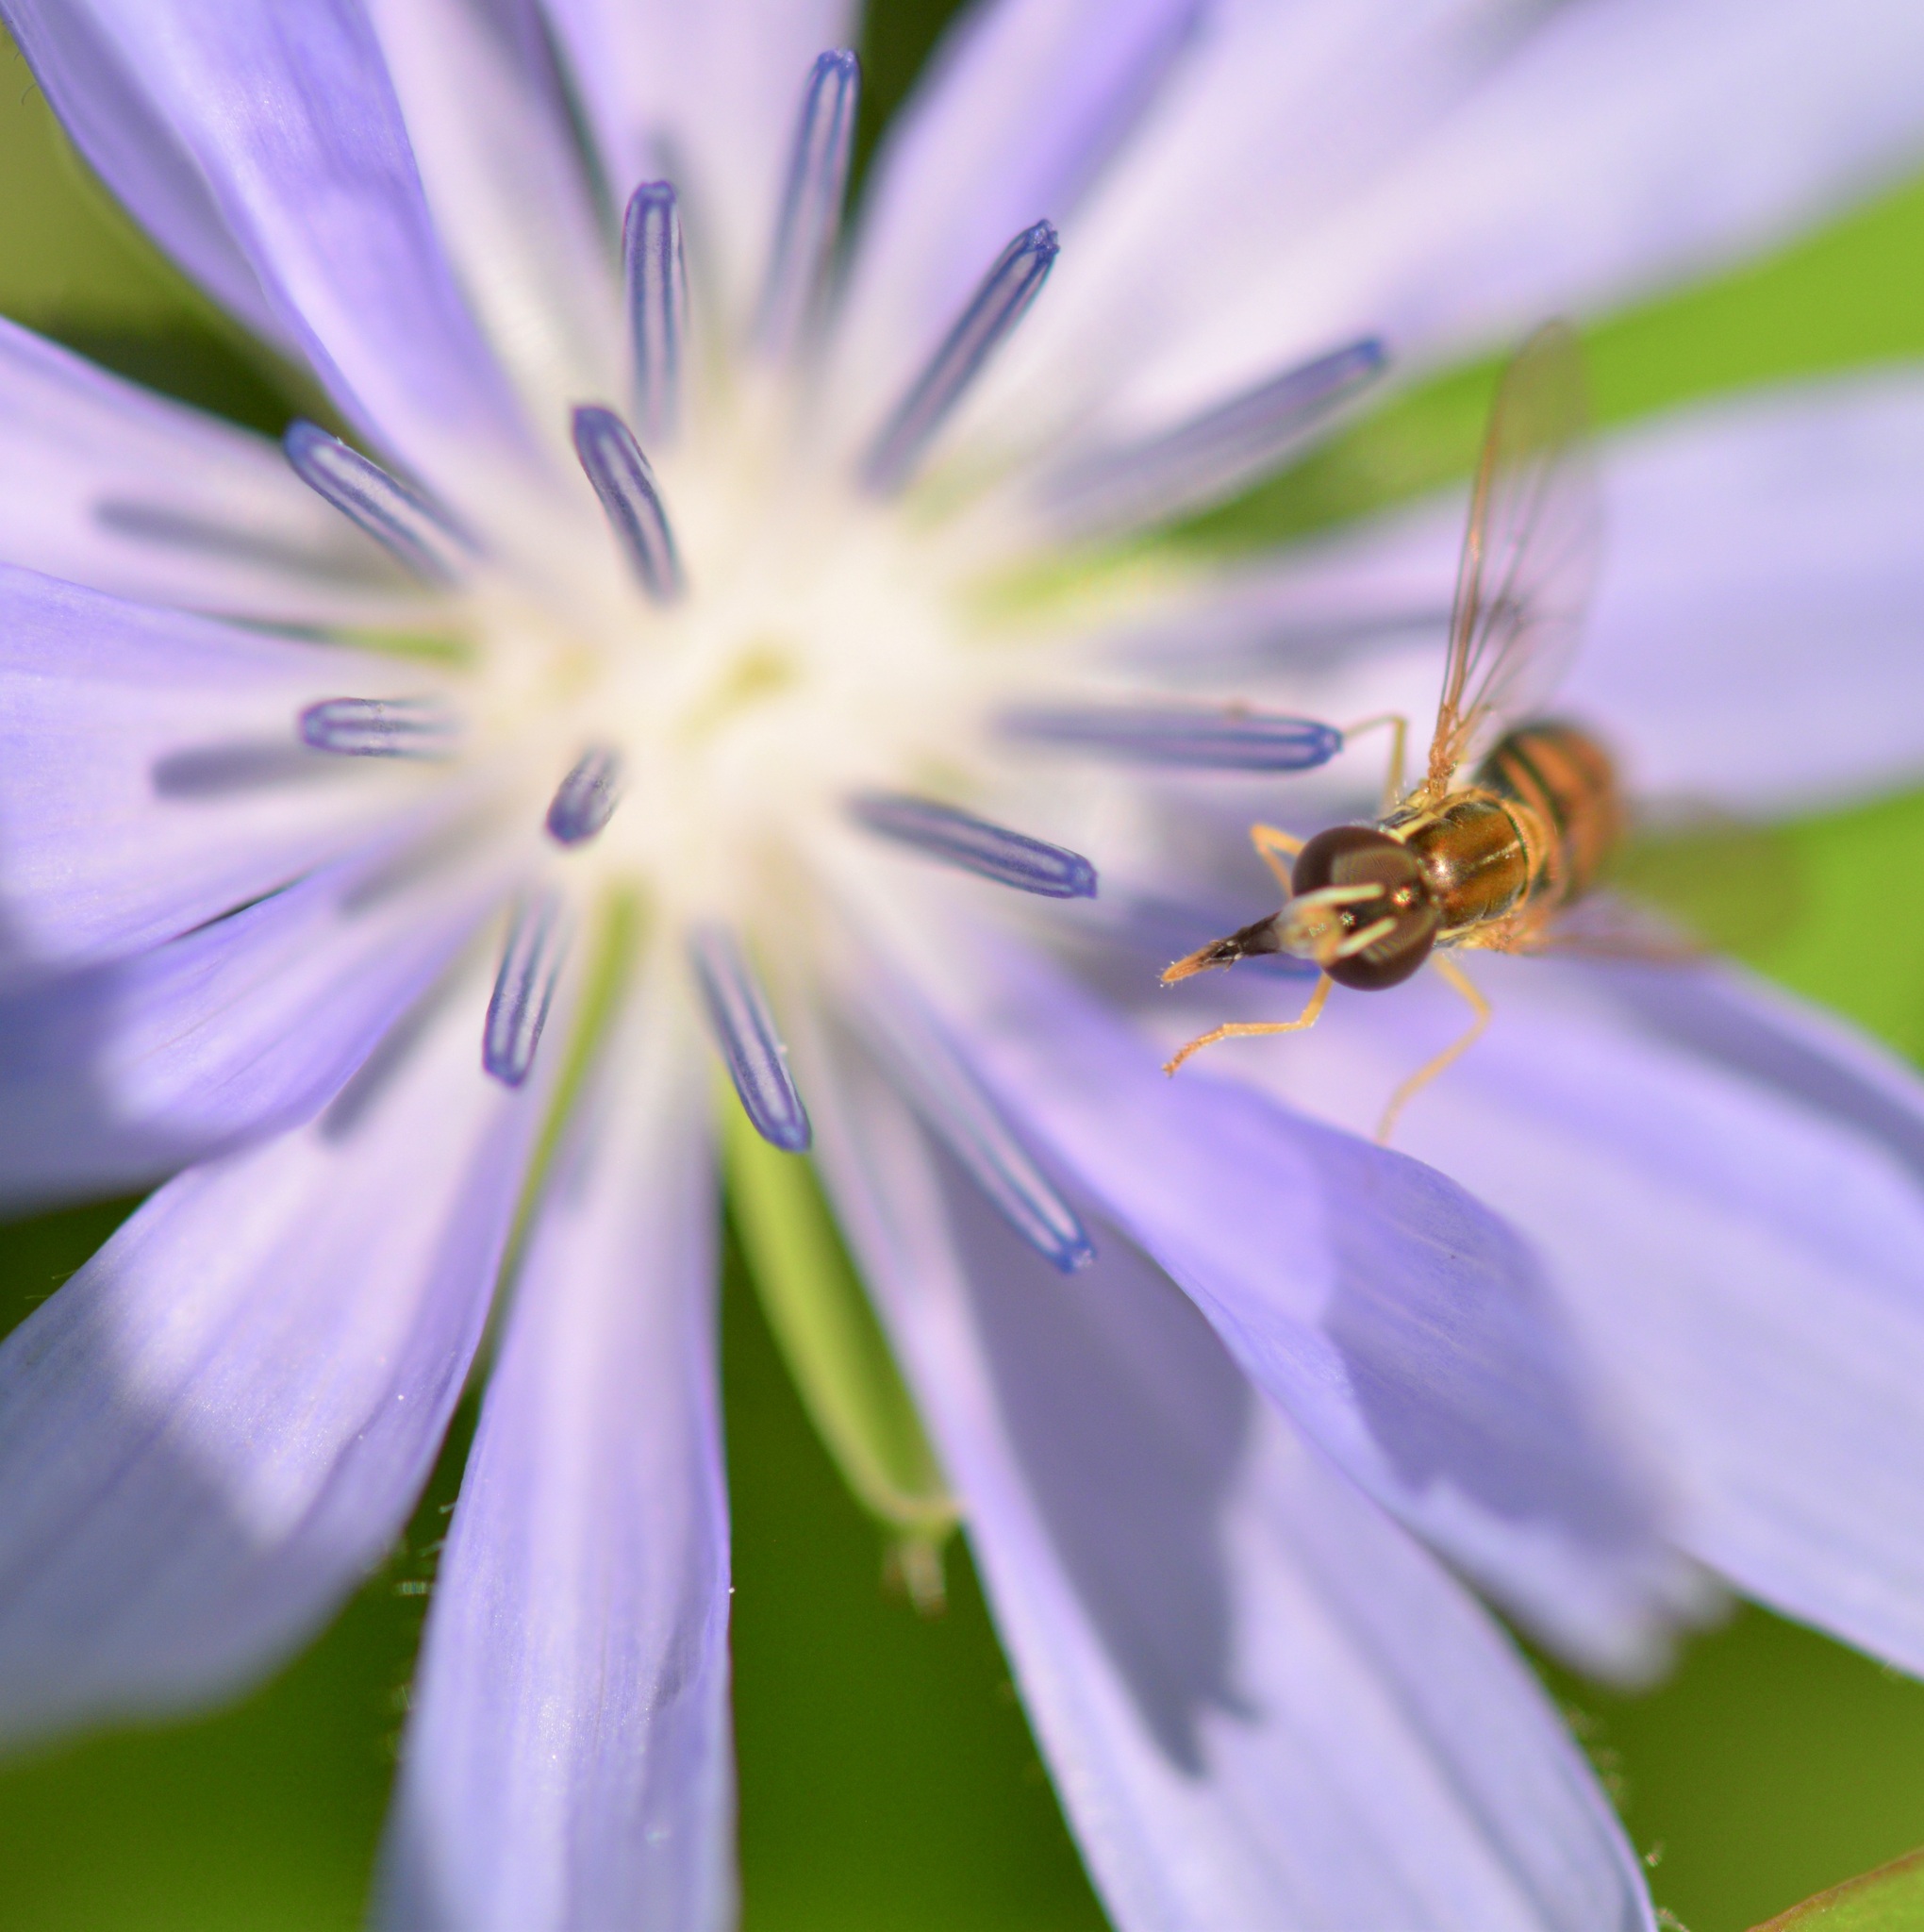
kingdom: Animalia
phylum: Arthropoda
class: Insecta
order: Diptera
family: Syrphidae
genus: Toxomerus
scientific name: Toxomerus marginatus
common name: Syrphid fly
